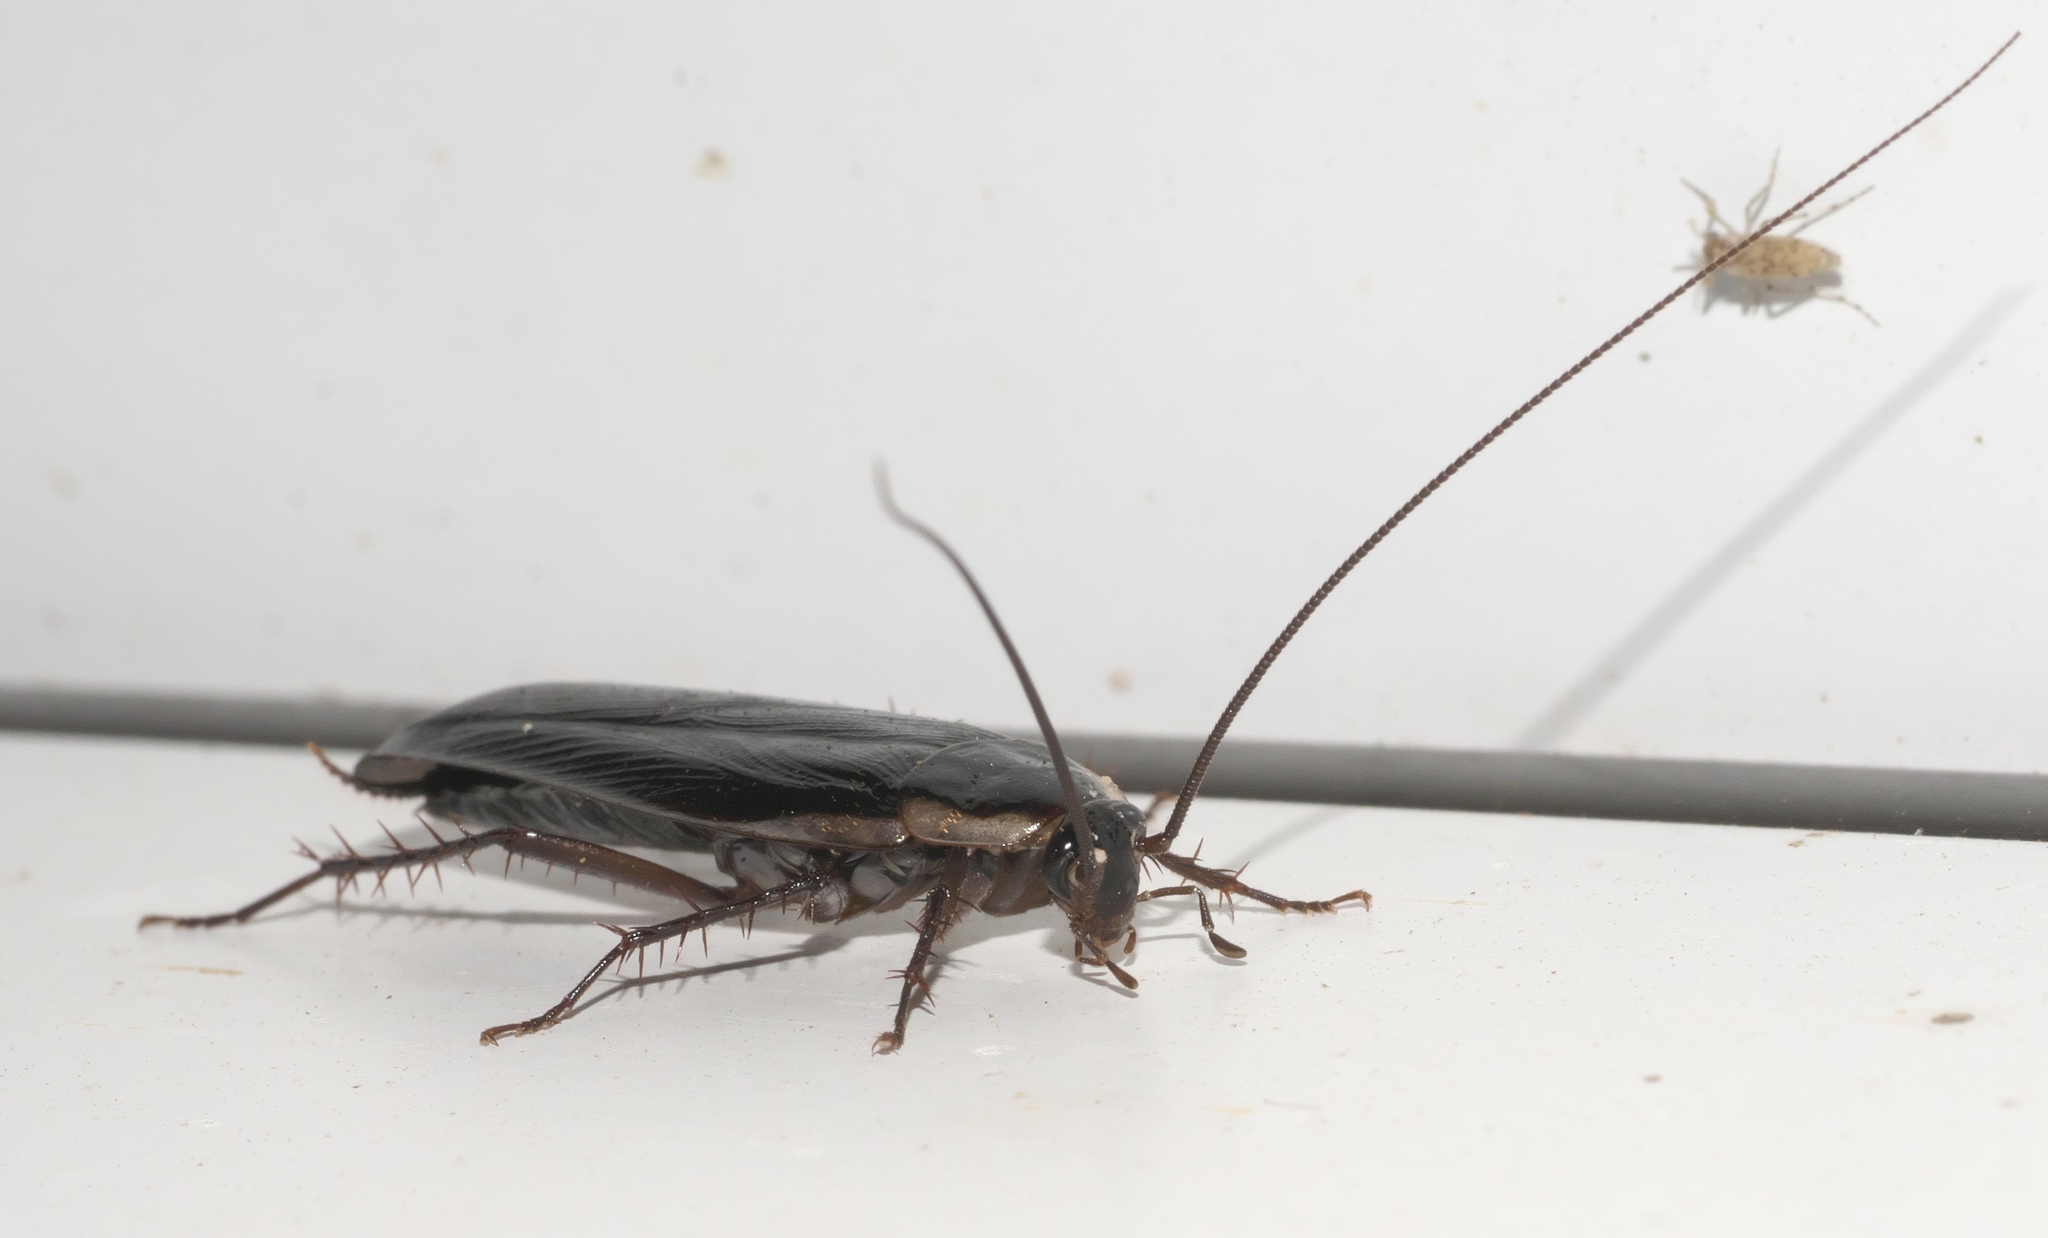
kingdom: Animalia
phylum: Arthropoda
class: Insecta
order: Blattodea
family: Ectobiidae
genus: Parcoblatta
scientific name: Parcoblatta pennsylvanica
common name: Pennsylvanian wood cockroach
